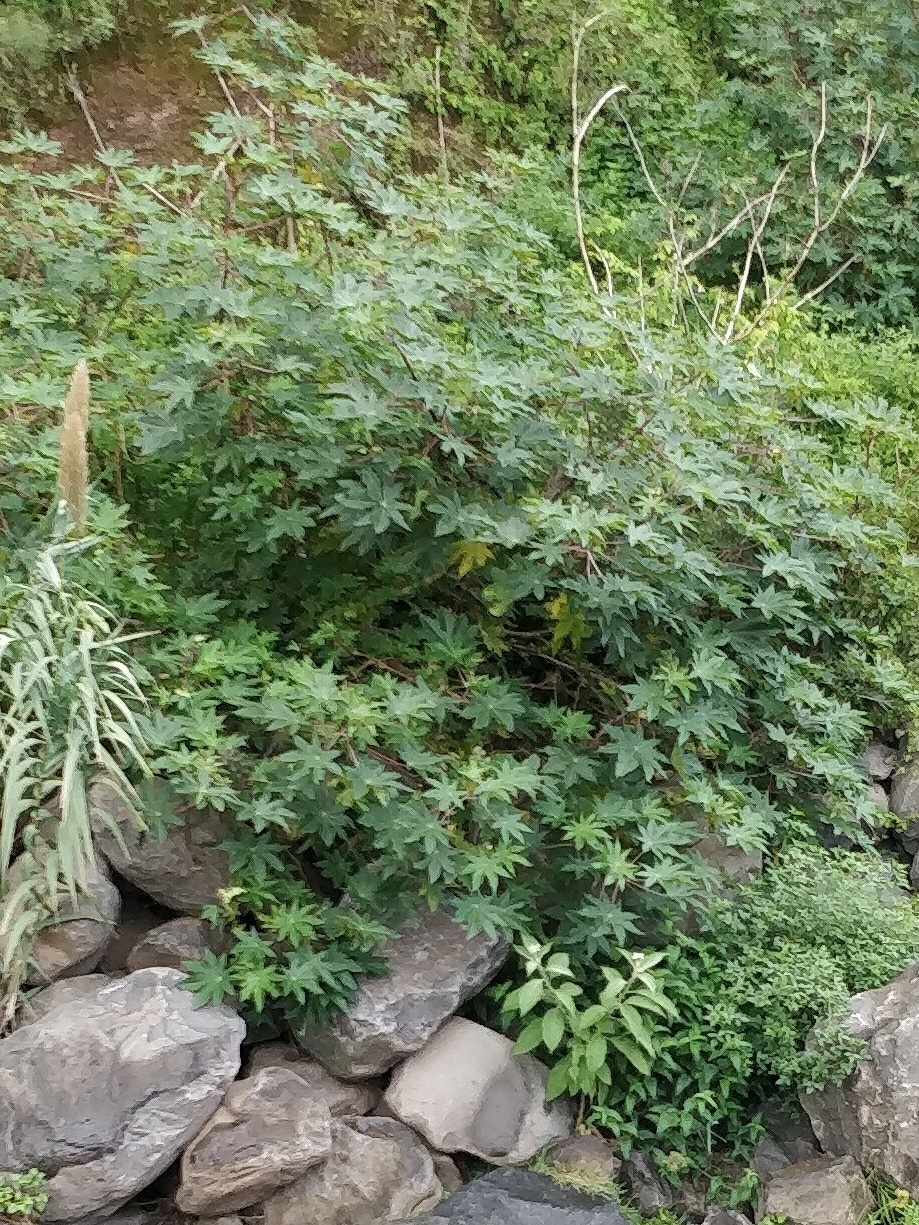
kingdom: Plantae
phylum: Tracheophyta
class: Magnoliopsida
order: Malpighiales
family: Euphorbiaceae
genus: Ricinus
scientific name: Ricinus communis
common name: Castor-oil-plant
